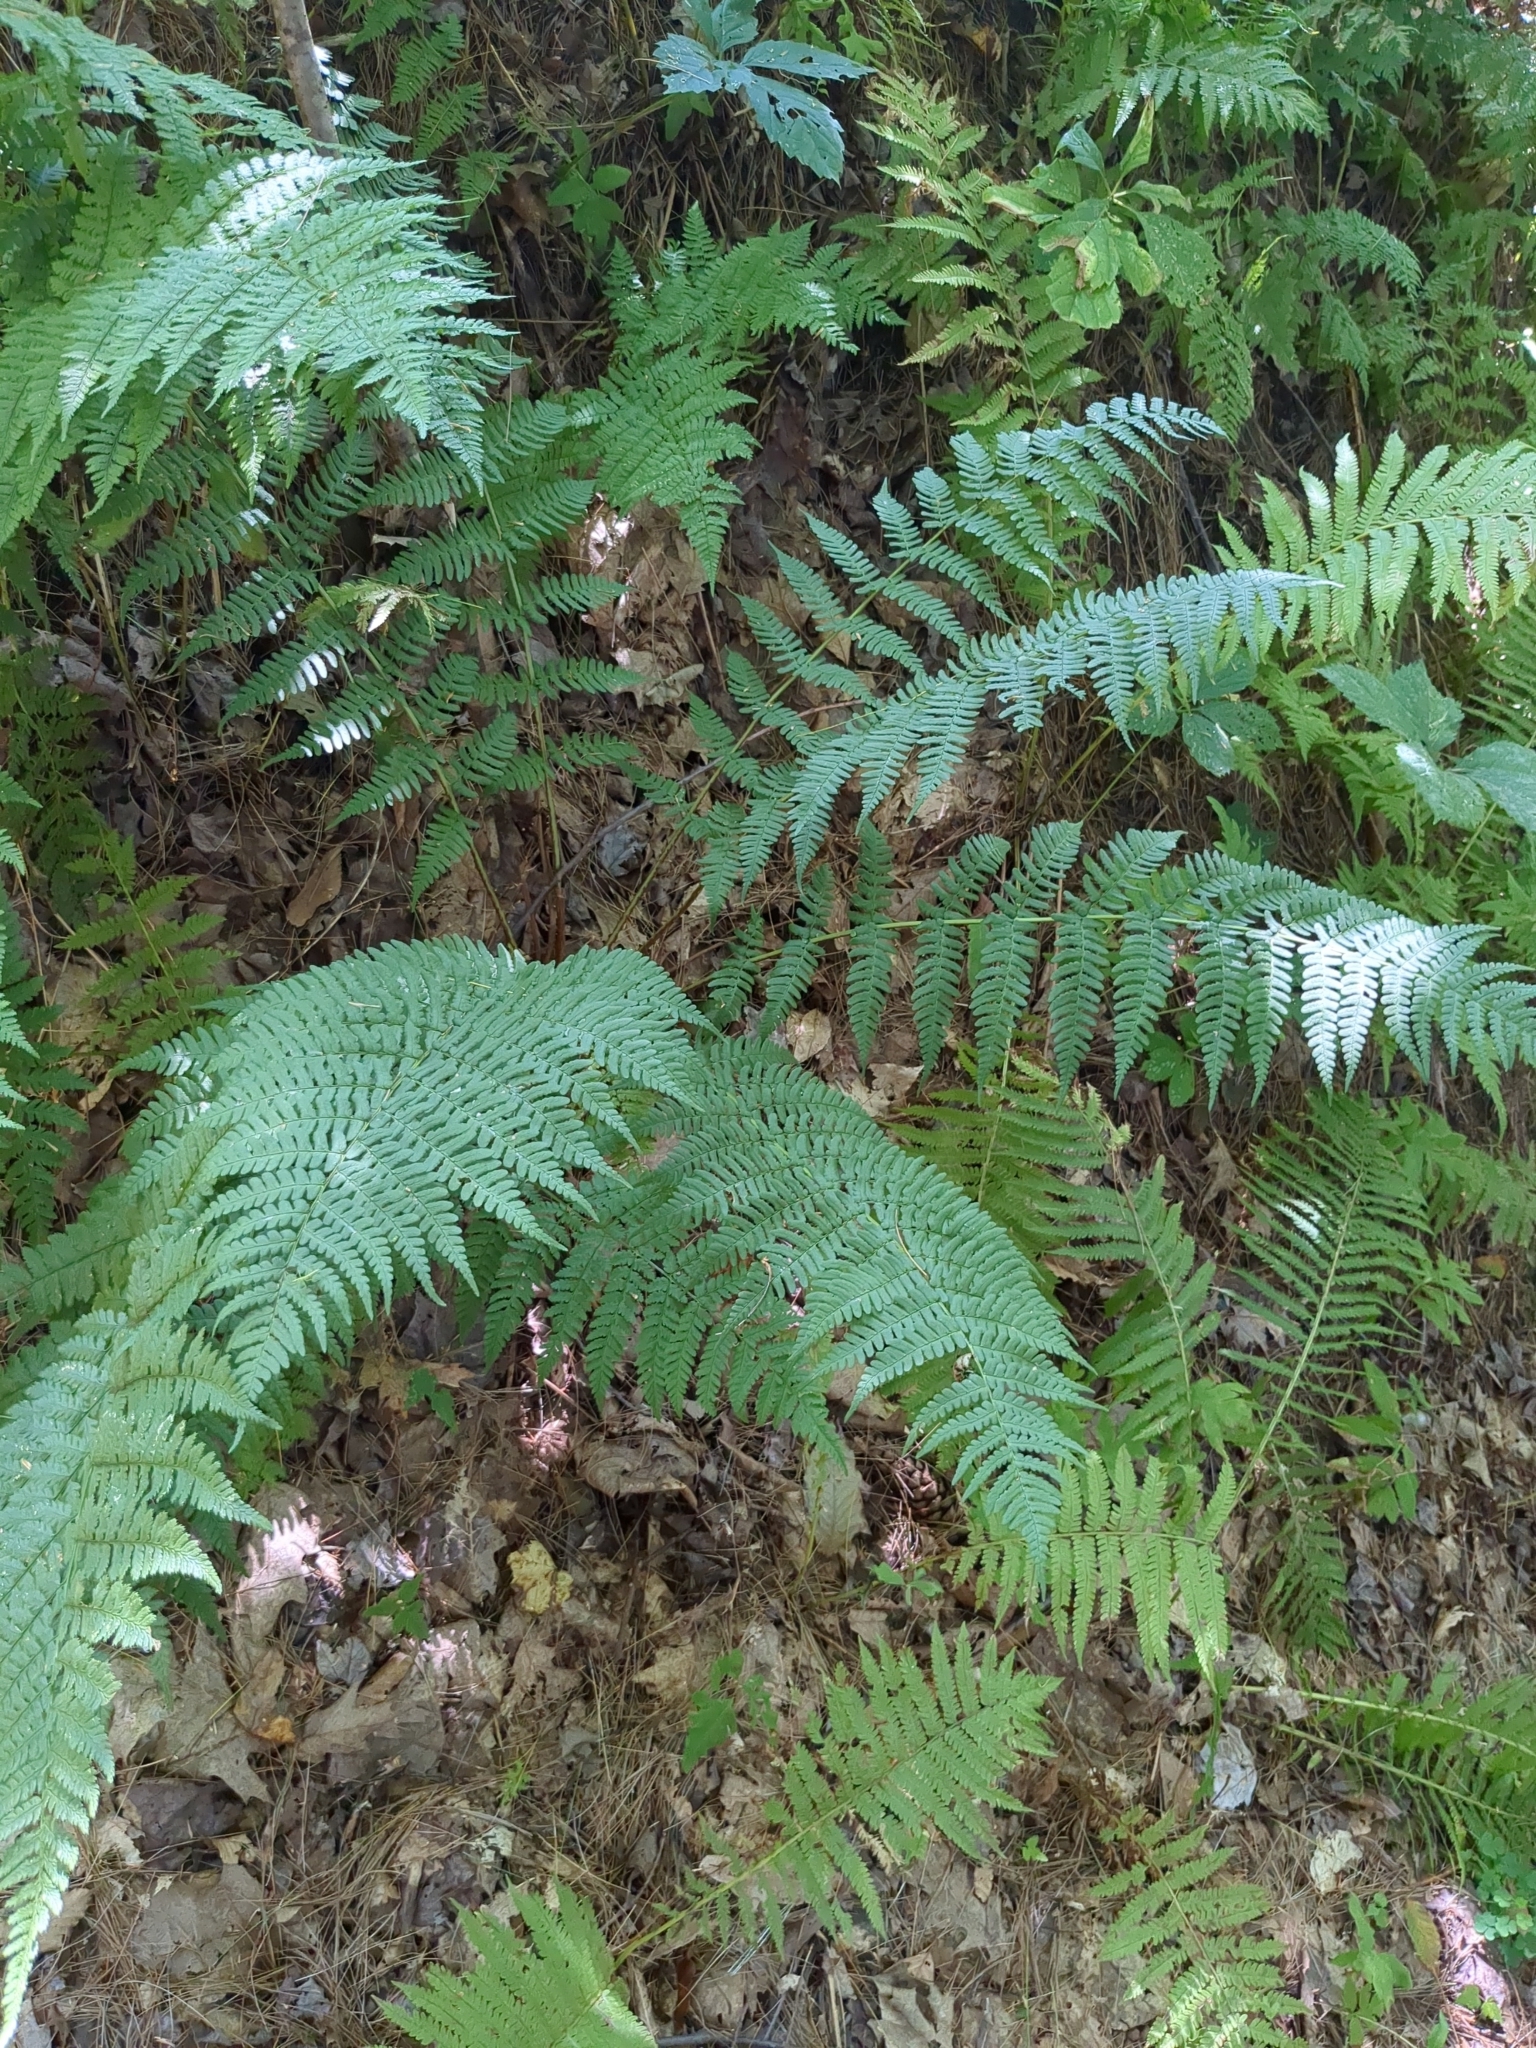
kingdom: Plantae
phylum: Tracheophyta
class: Polypodiopsida
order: Polypodiales
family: Dryopteridaceae
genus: Dryopteris
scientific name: Dryopteris marginalis
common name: Marginal wood fern
